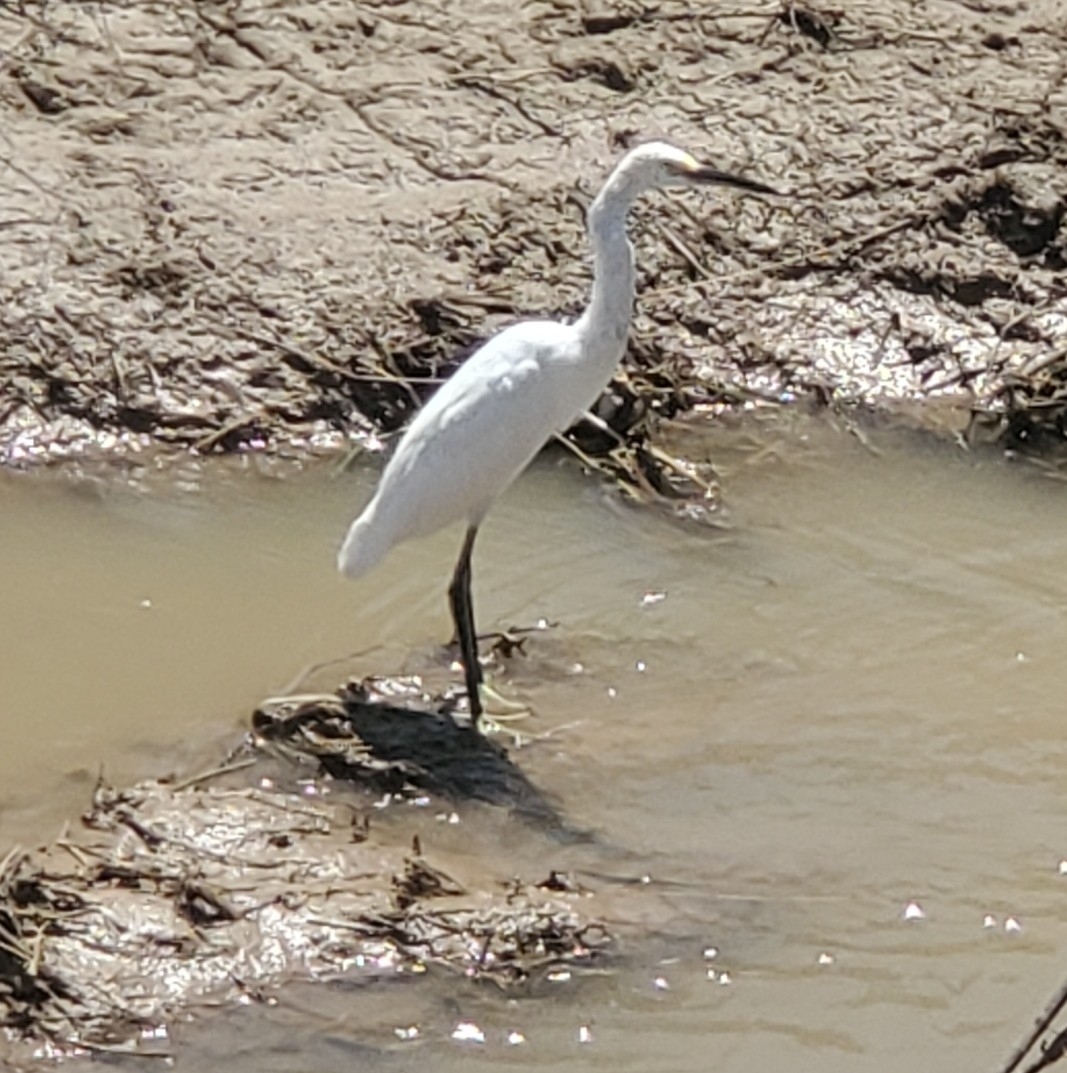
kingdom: Animalia
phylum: Chordata
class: Aves
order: Pelecaniformes
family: Ardeidae
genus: Egretta
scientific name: Egretta thula
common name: Snowy egret
